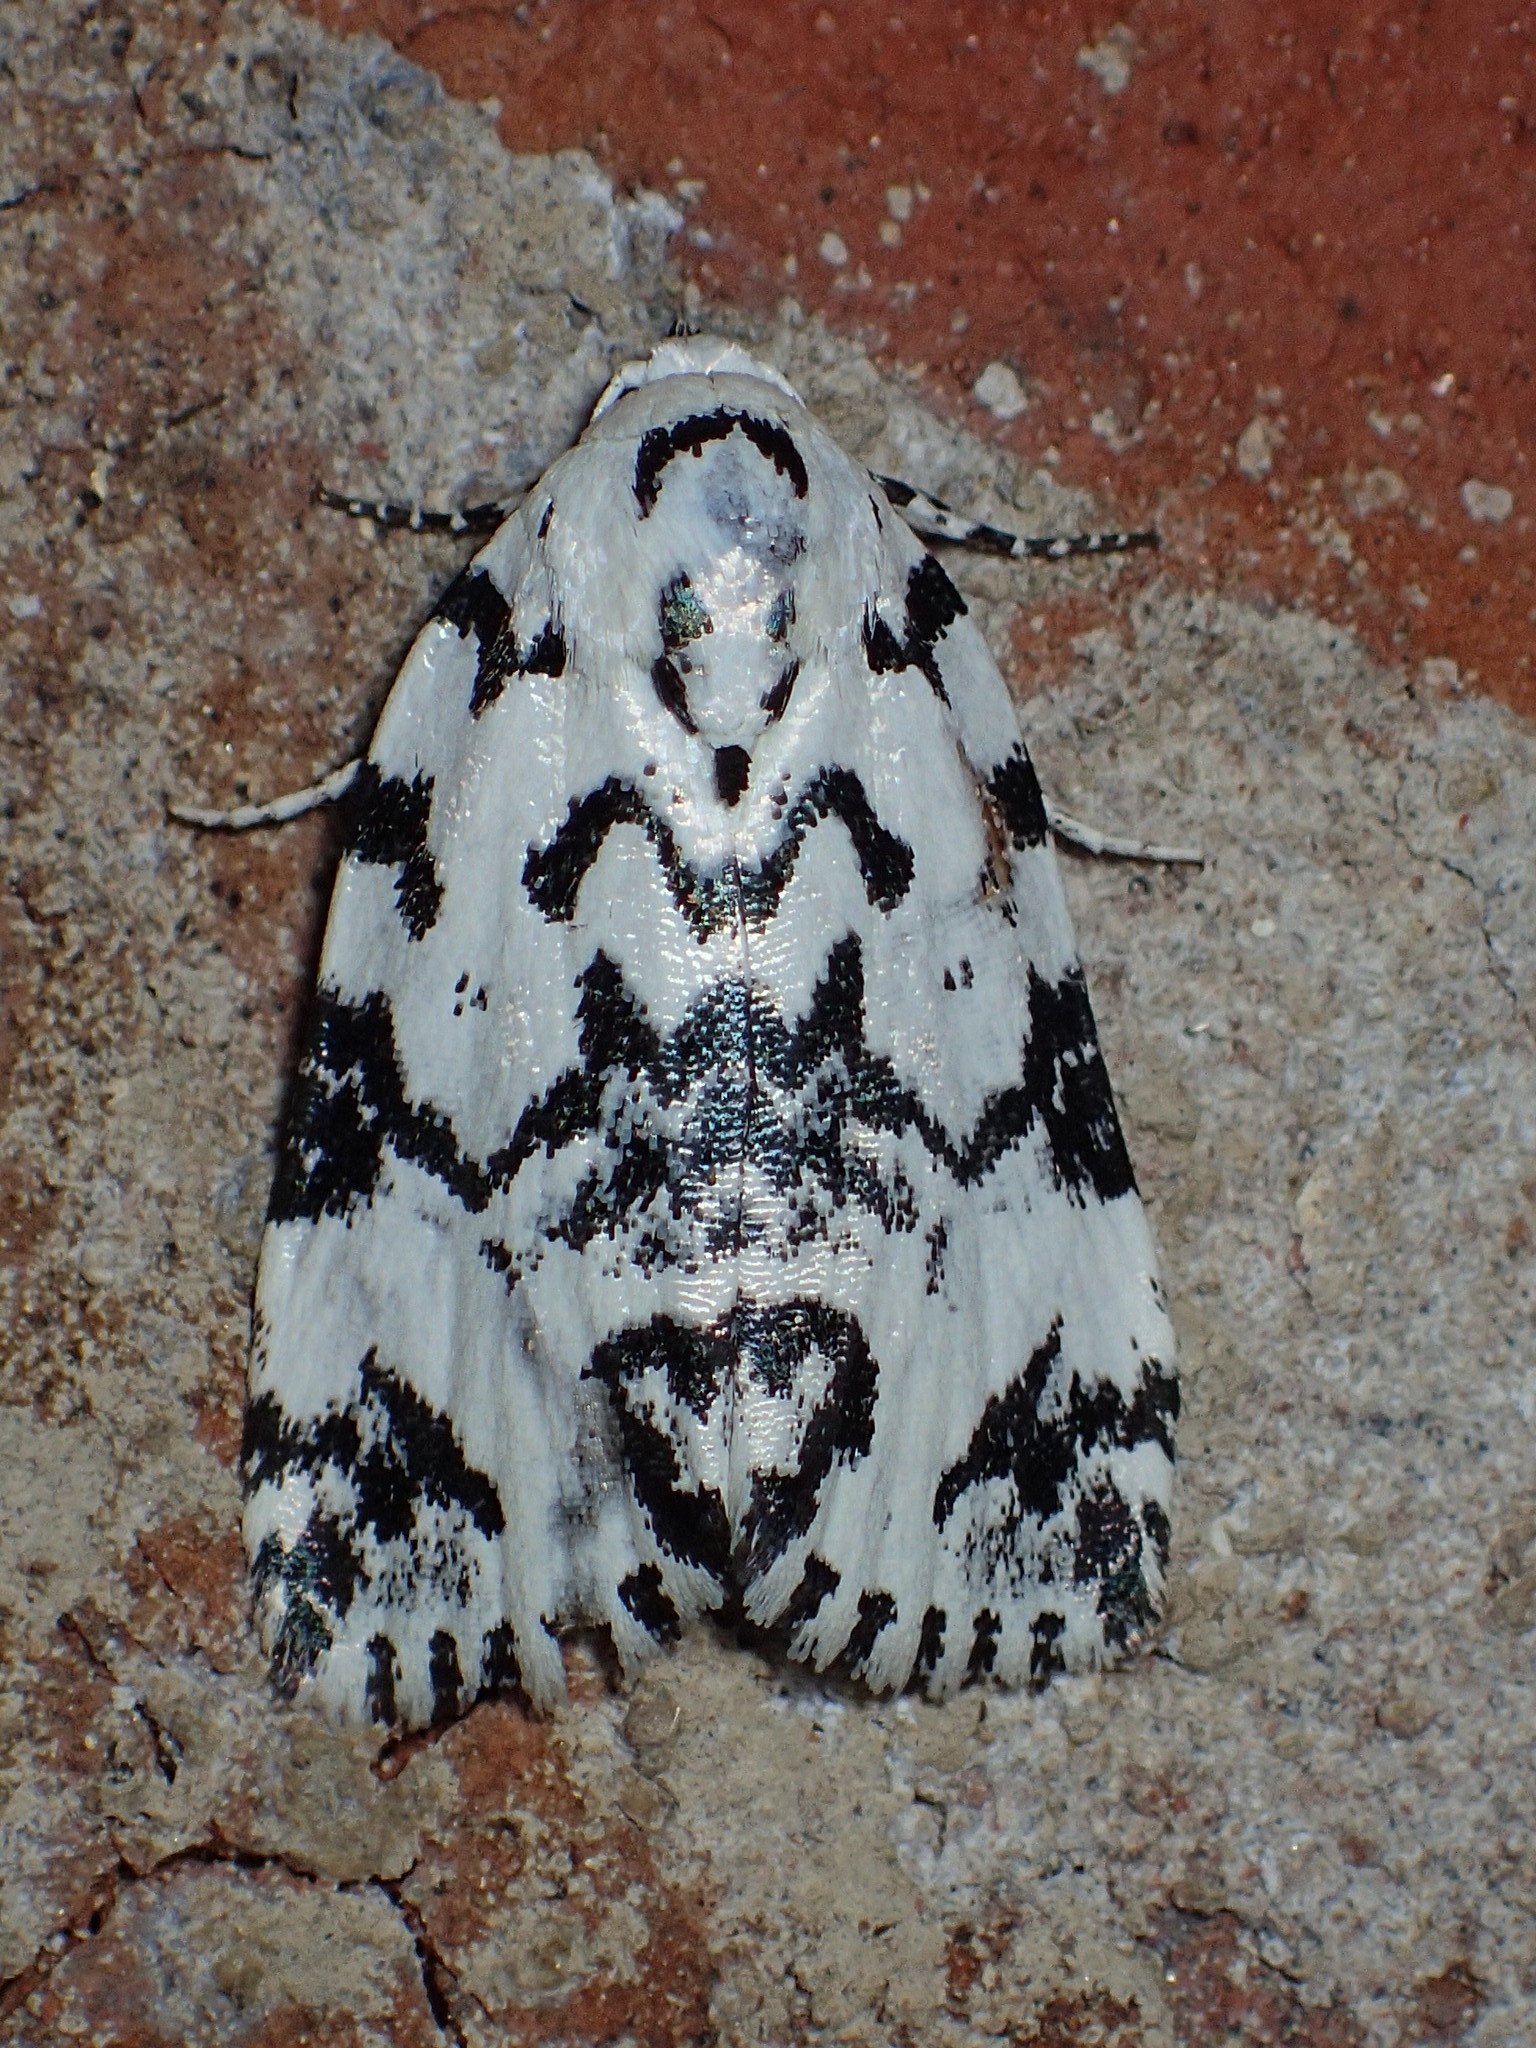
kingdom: Animalia
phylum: Arthropoda
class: Insecta
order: Lepidoptera
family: Noctuidae
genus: Polygrammate
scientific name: Polygrammate hebraeicum
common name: Hebrew moth
